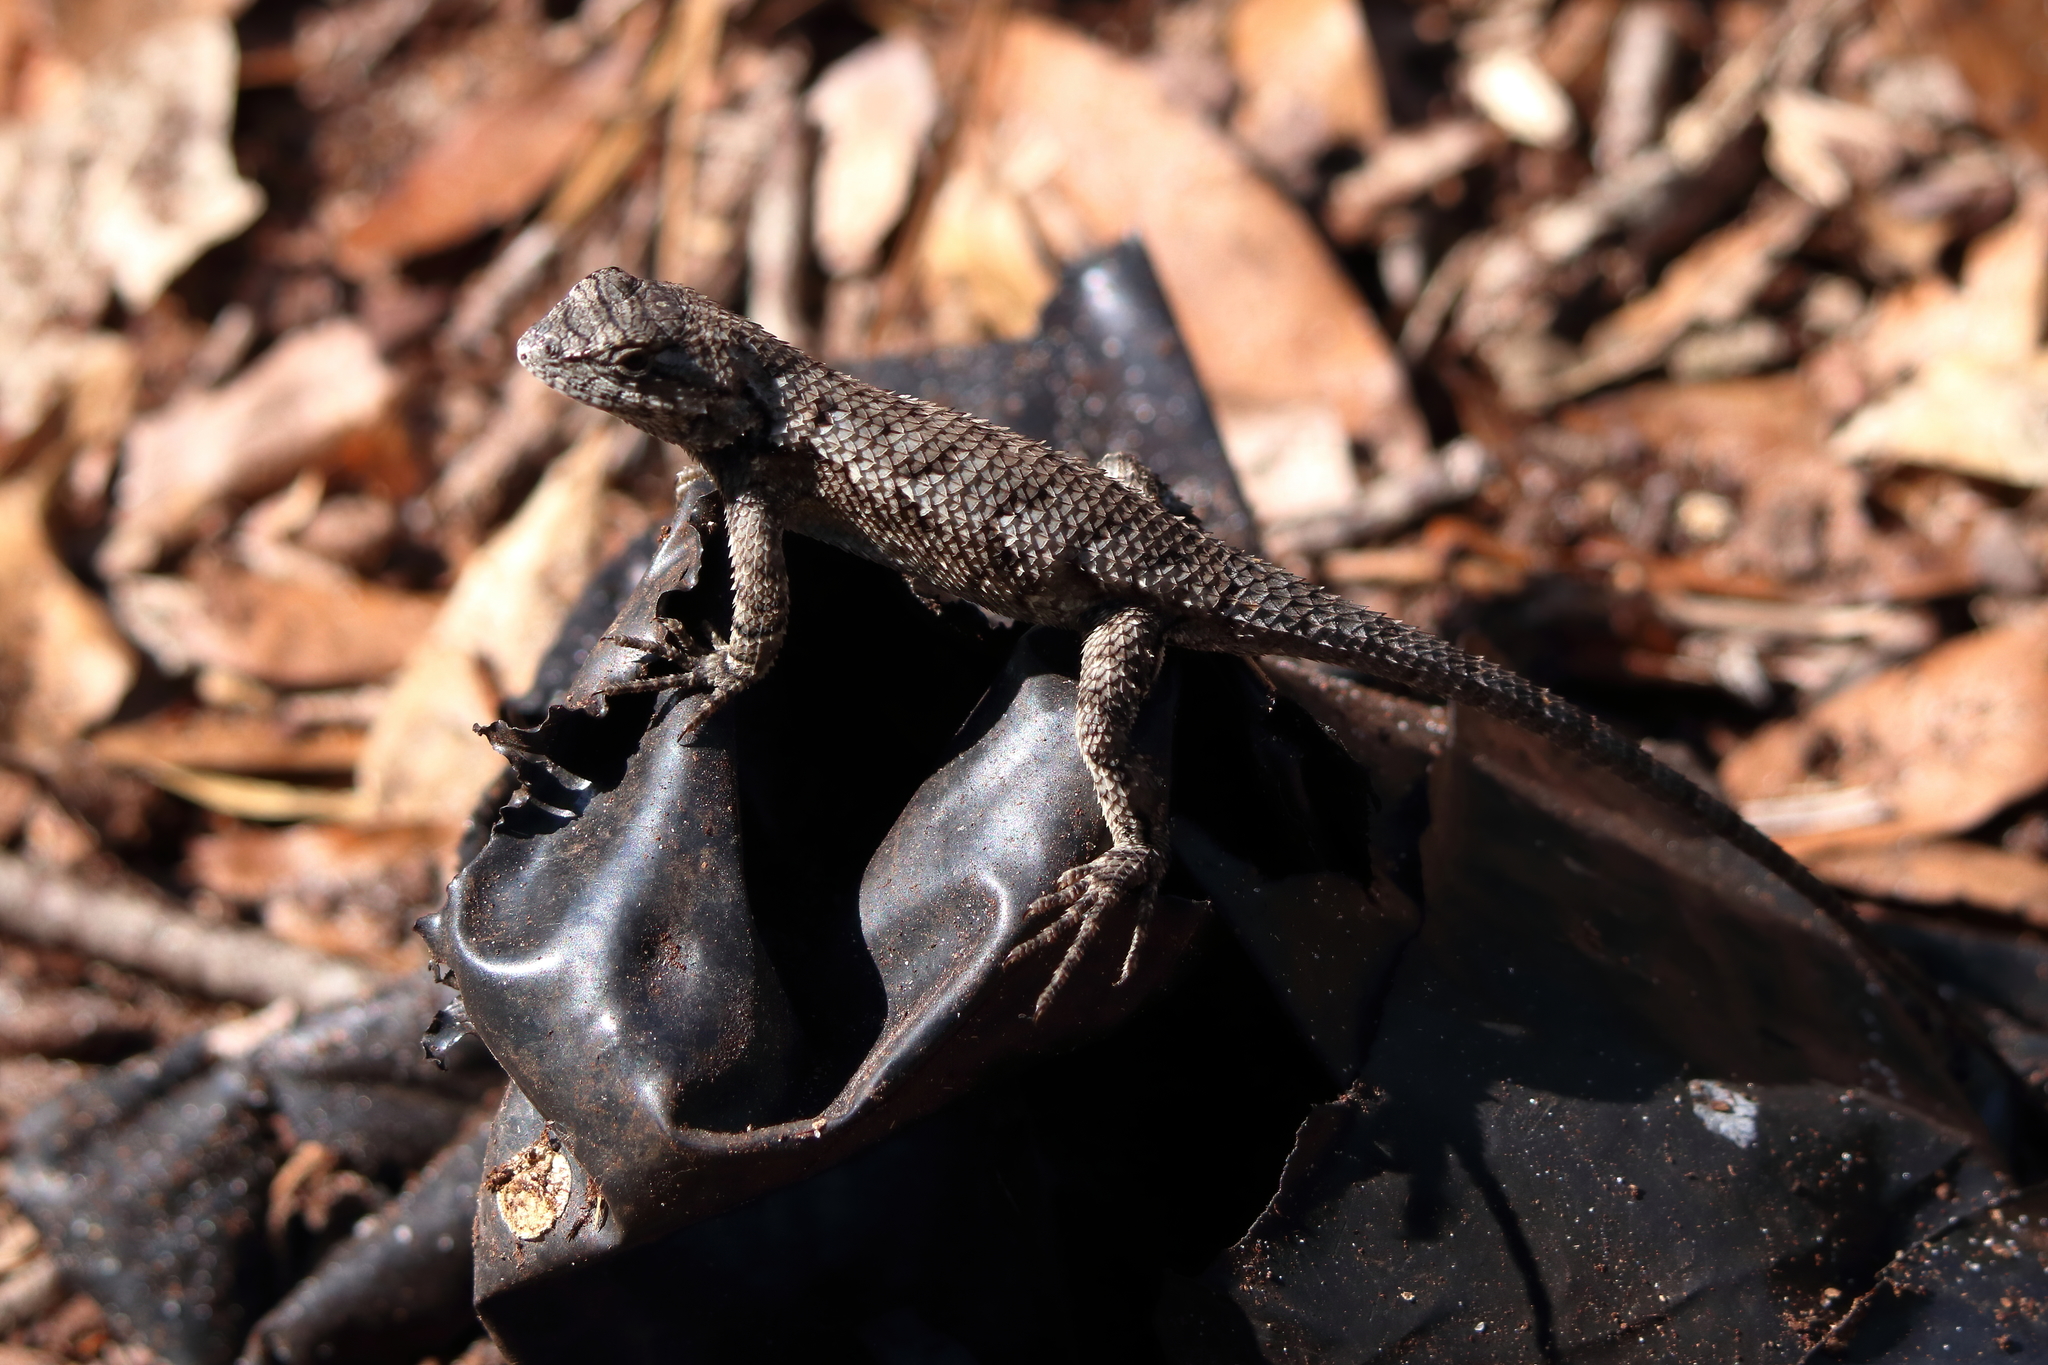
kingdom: Animalia
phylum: Chordata
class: Squamata
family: Phrynosomatidae
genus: Sceloporus
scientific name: Sceloporus undulatus
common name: Eastern fence lizard
